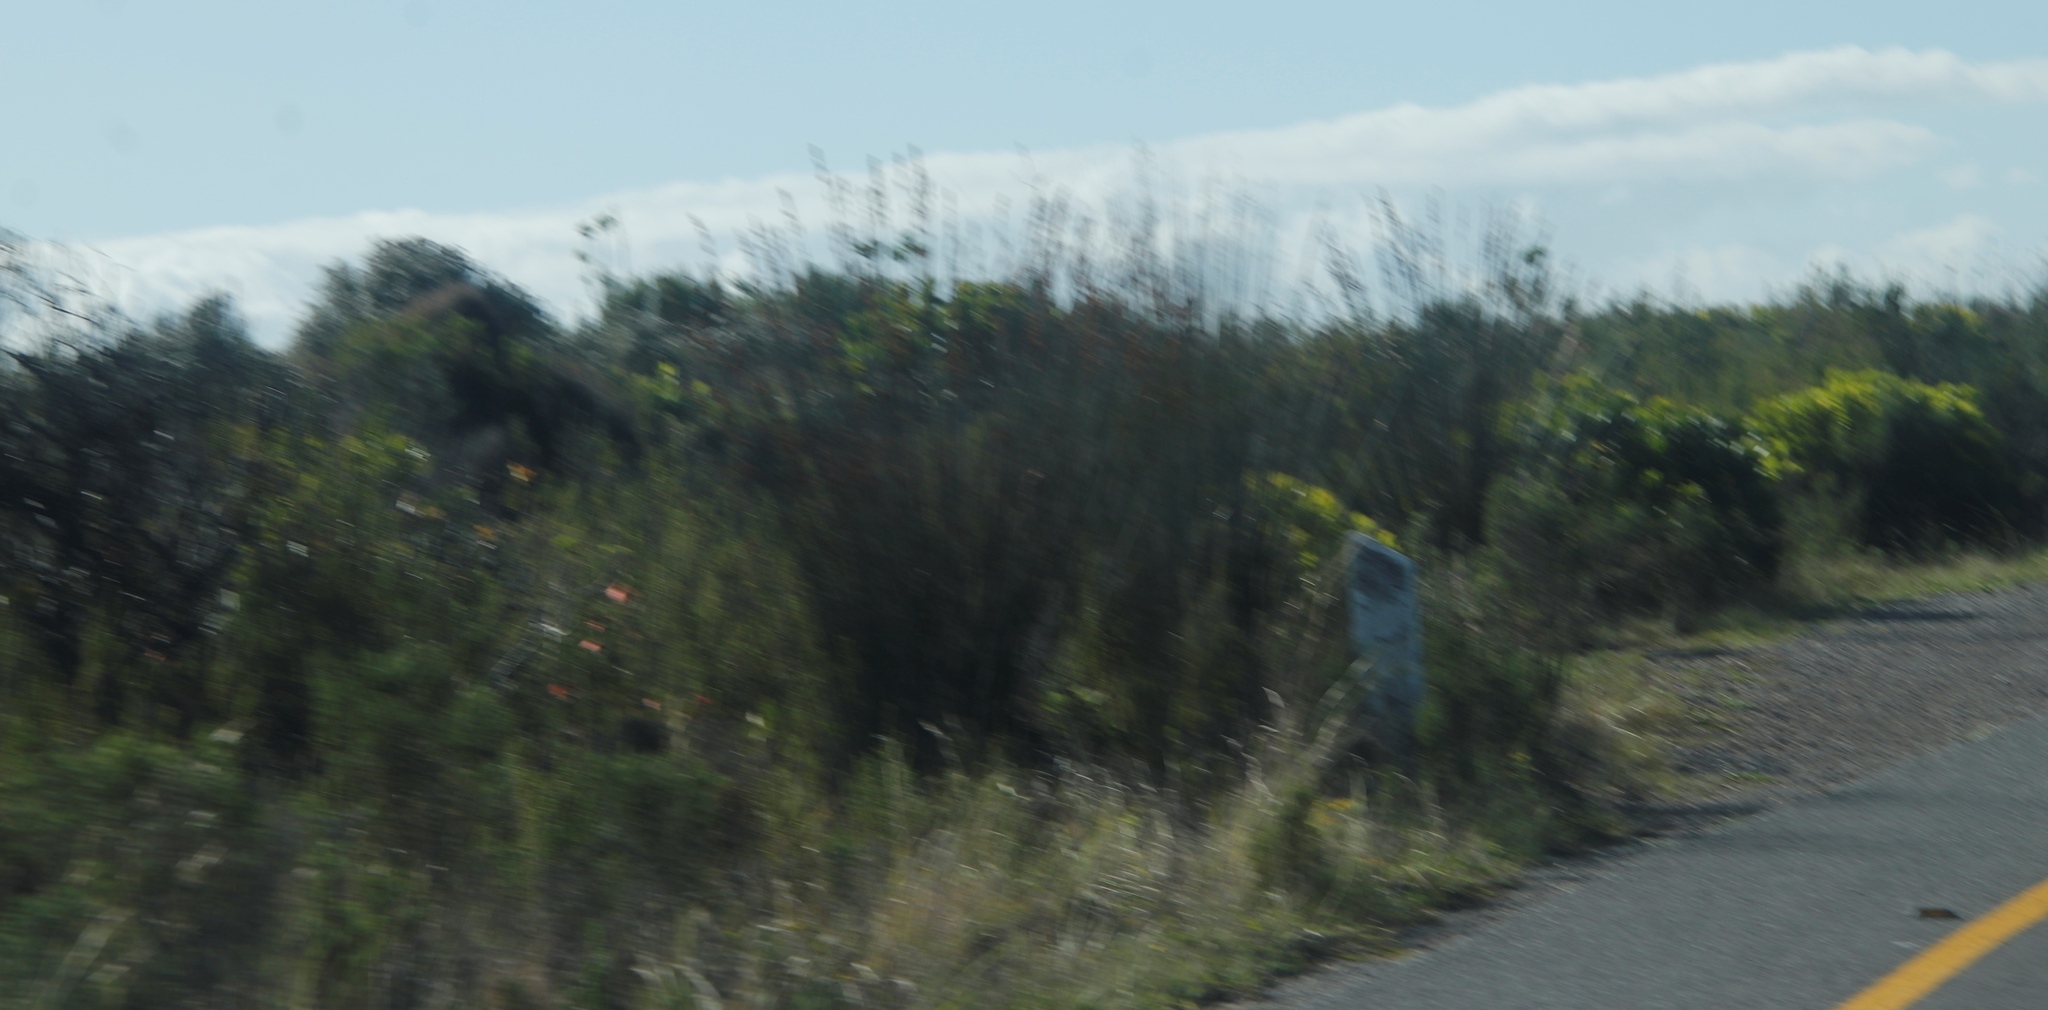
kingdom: Plantae
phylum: Tracheophyta
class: Liliopsida
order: Poales
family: Restionaceae
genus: Thamnochortus
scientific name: Thamnochortus insignis
